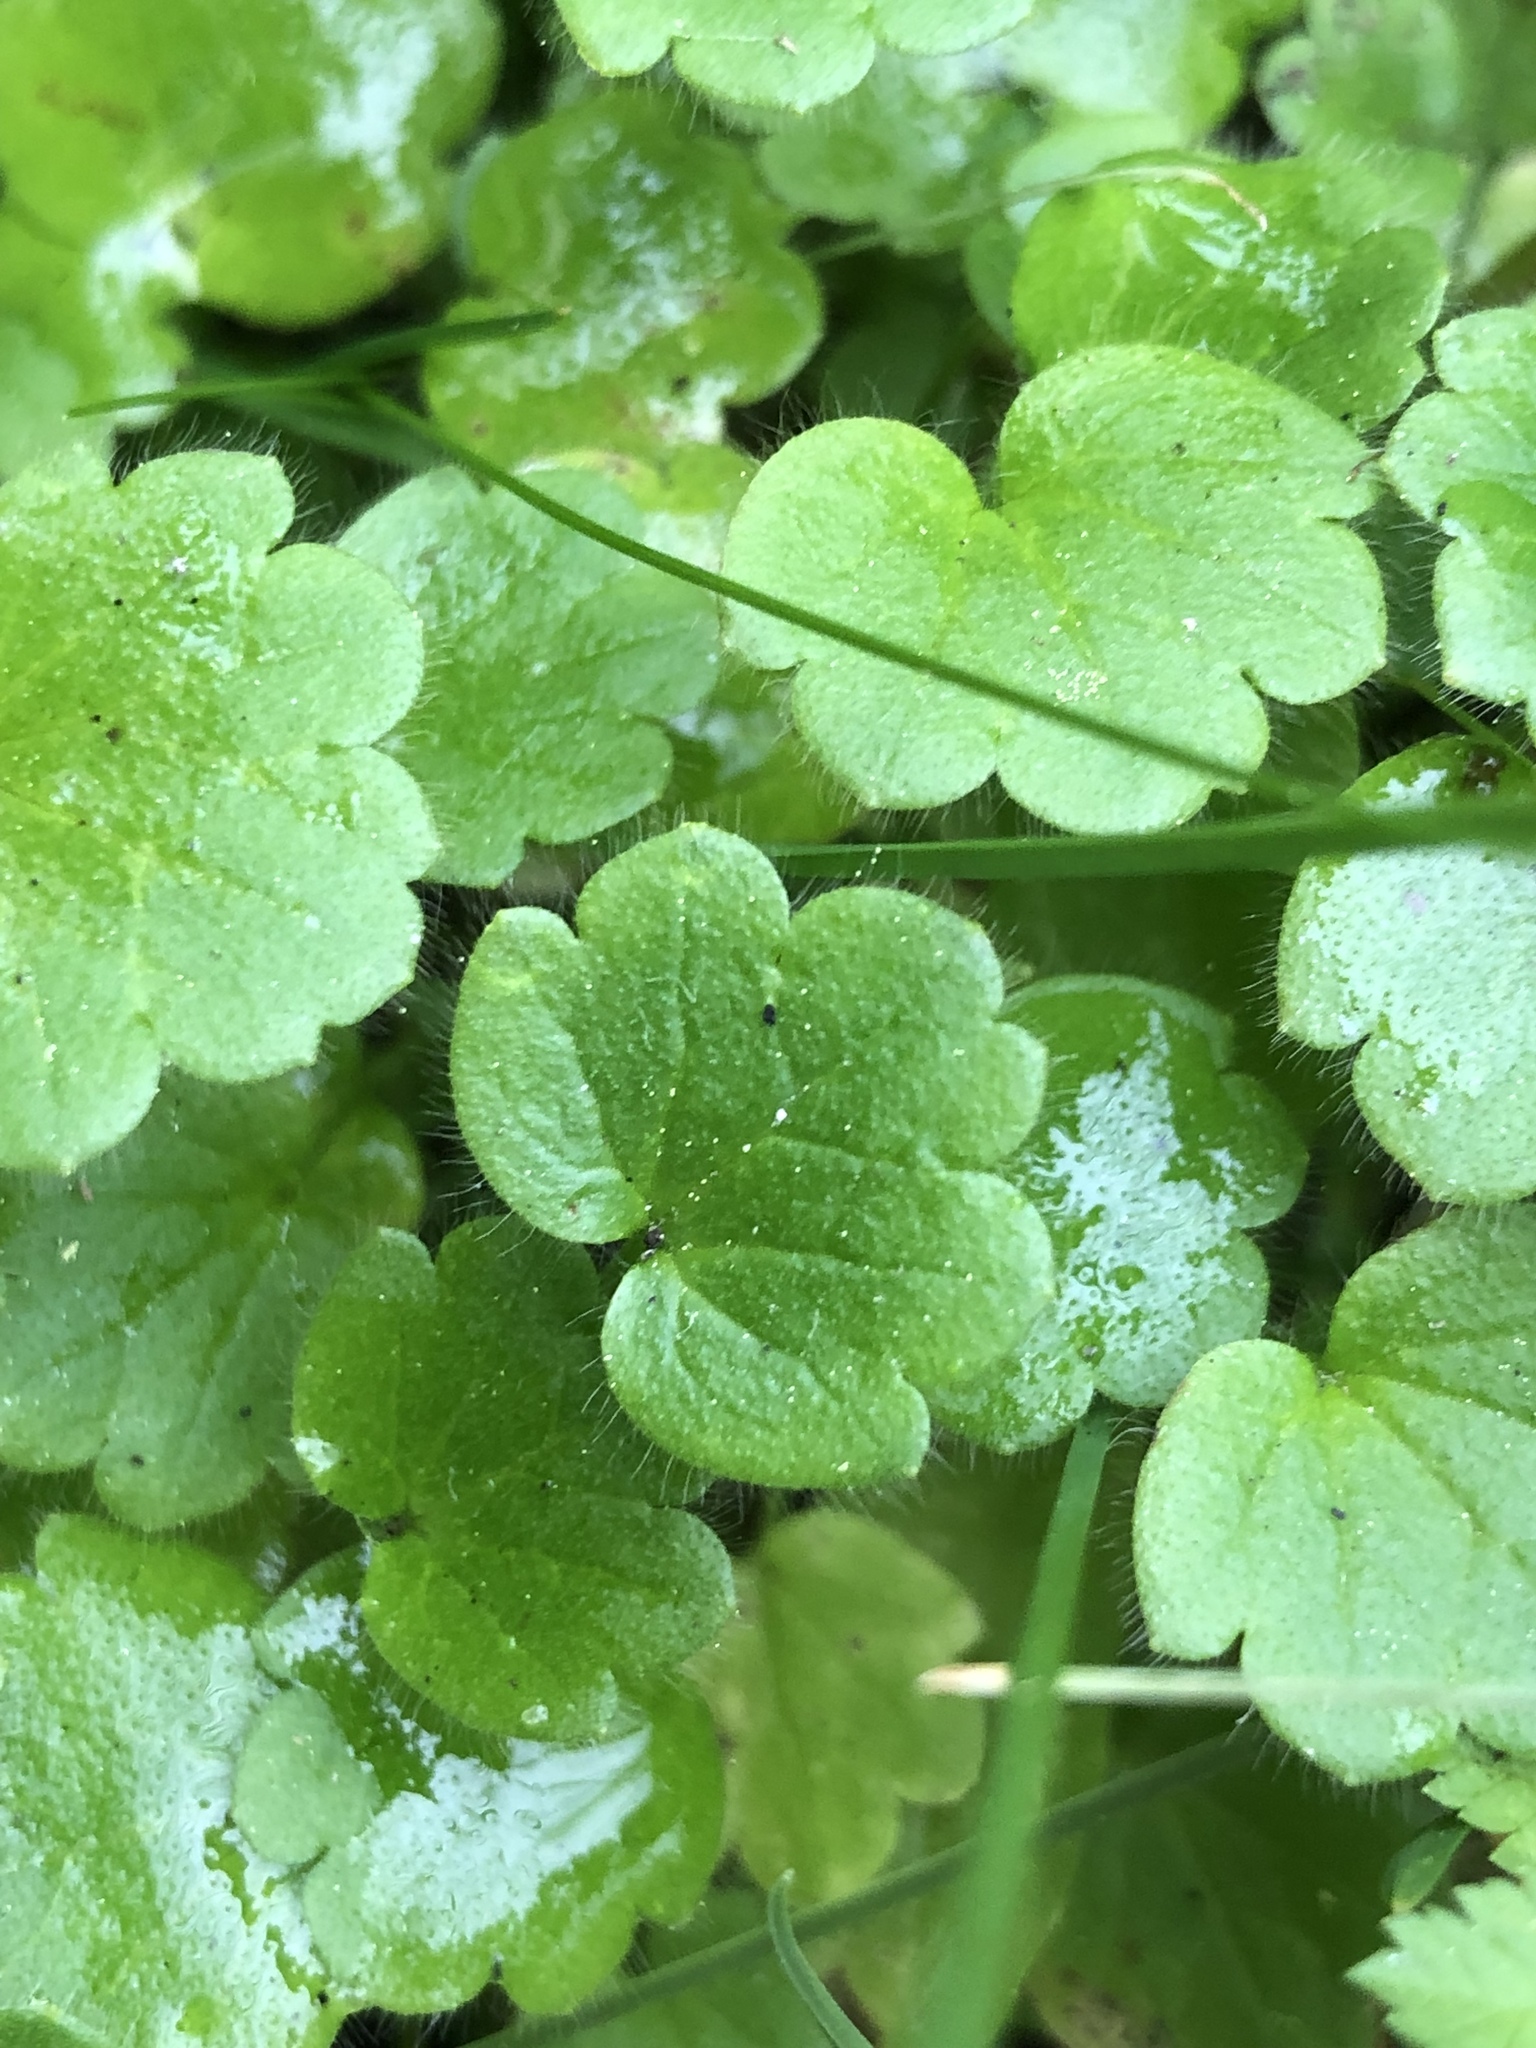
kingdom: Plantae
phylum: Tracheophyta
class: Magnoliopsida
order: Ranunculales
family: Ranunculaceae
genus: Ranunculus
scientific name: Ranunculus parviflorus
